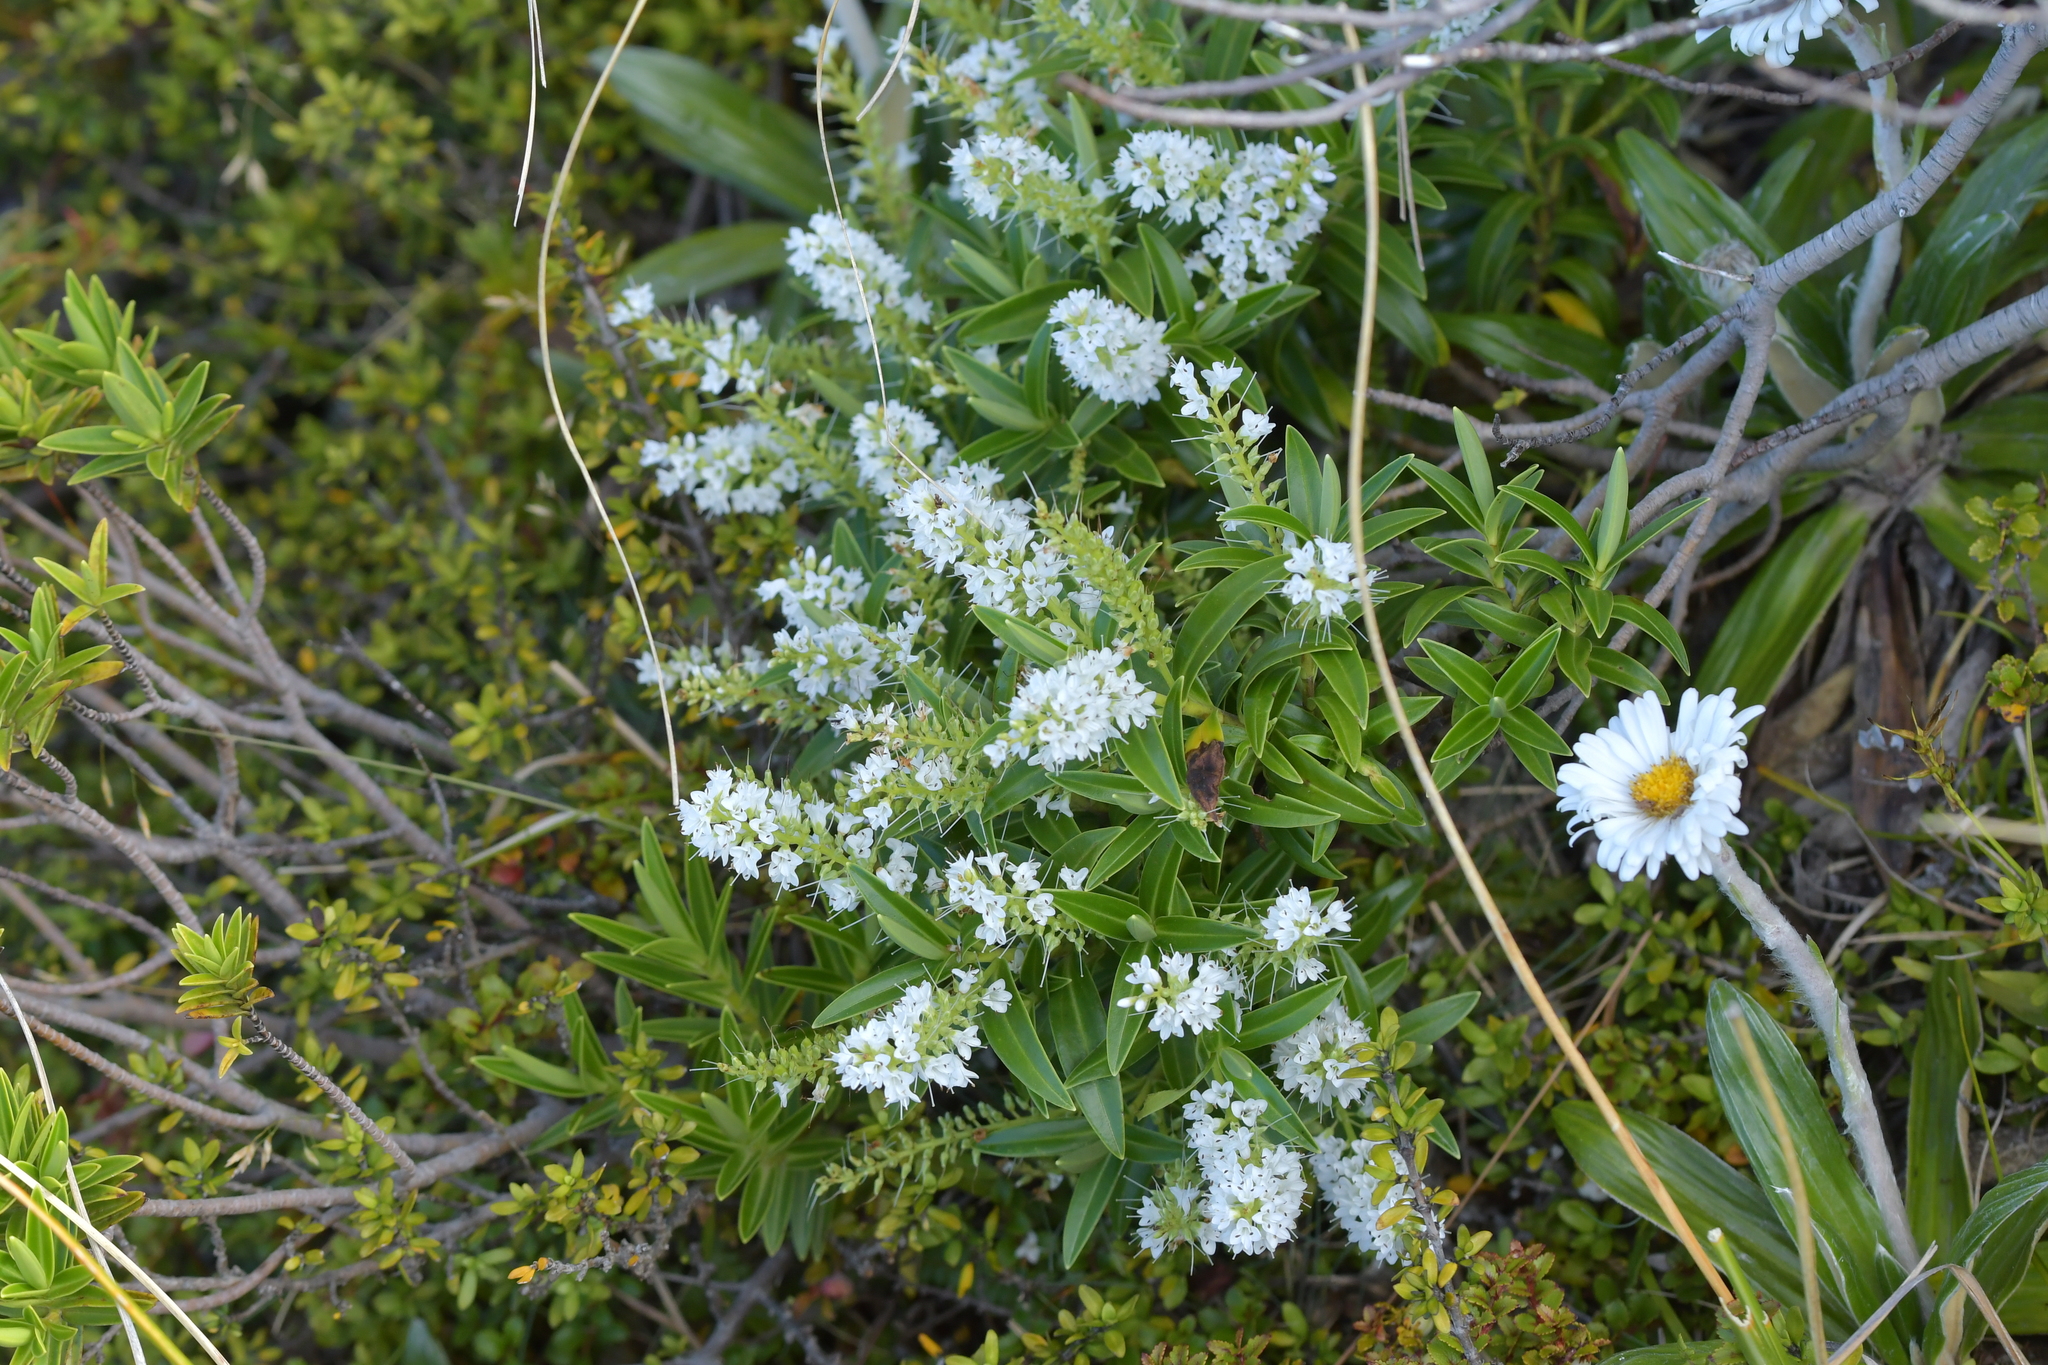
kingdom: Plantae
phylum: Tracheophyta
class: Magnoliopsida
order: Lamiales
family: Plantaginaceae
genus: Veronica
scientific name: Veronica truncatula
